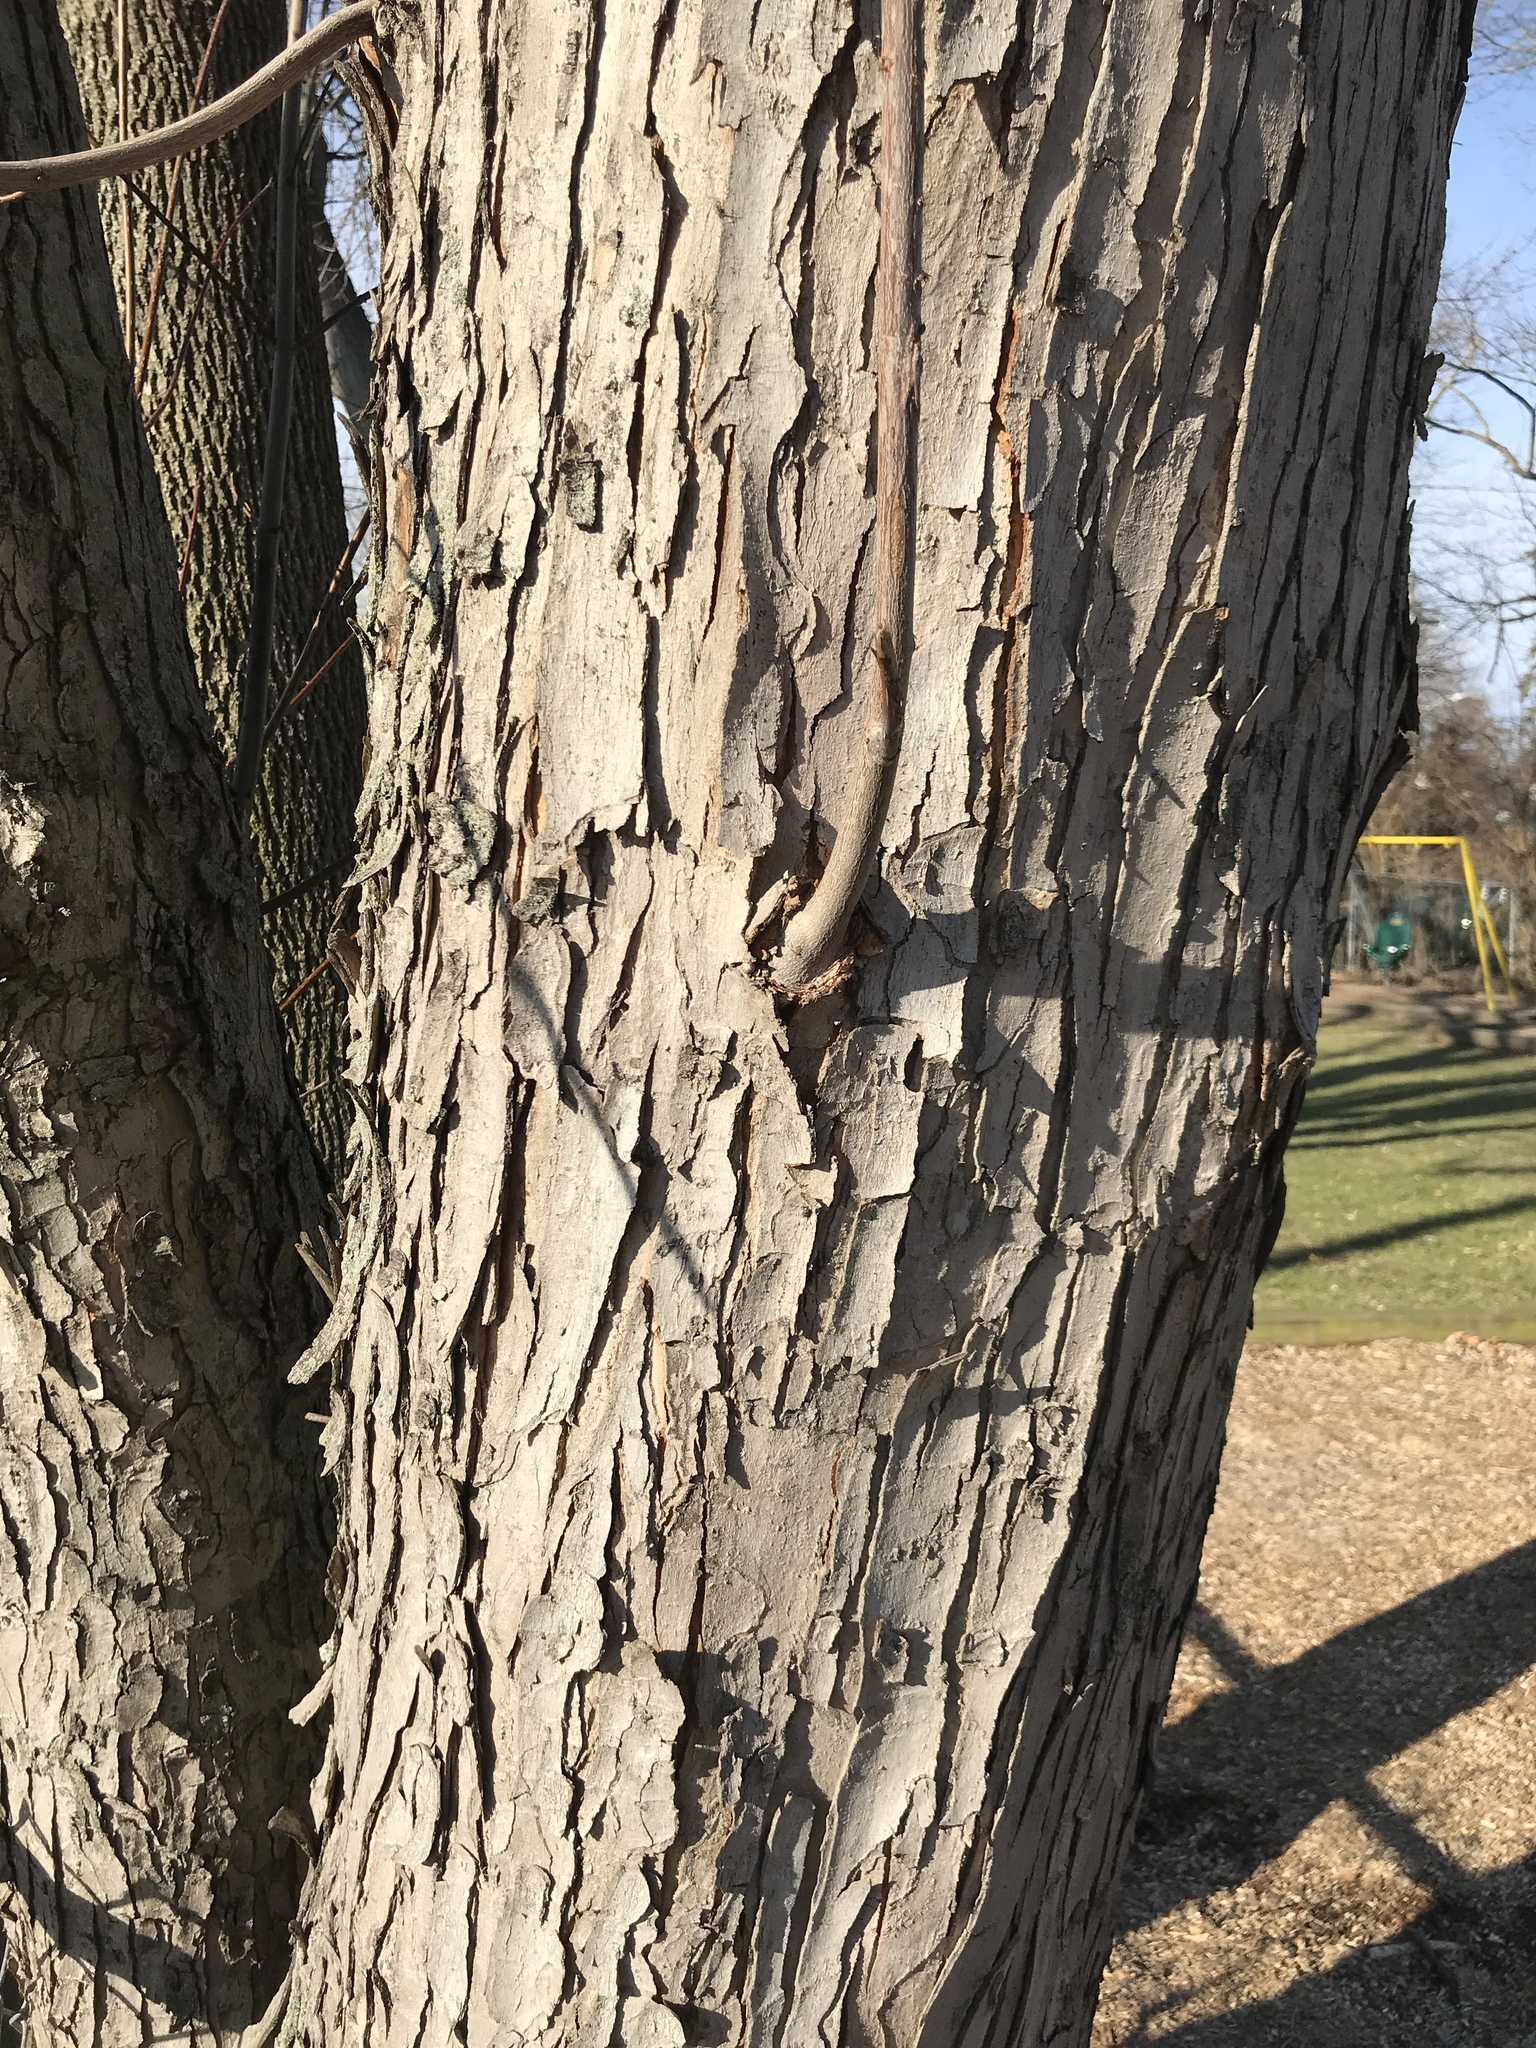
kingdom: Plantae
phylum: Tracheophyta
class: Magnoliopsida
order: Sapindales
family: Sapindaceae
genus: Acer
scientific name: Acer rubrum
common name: Red maple
